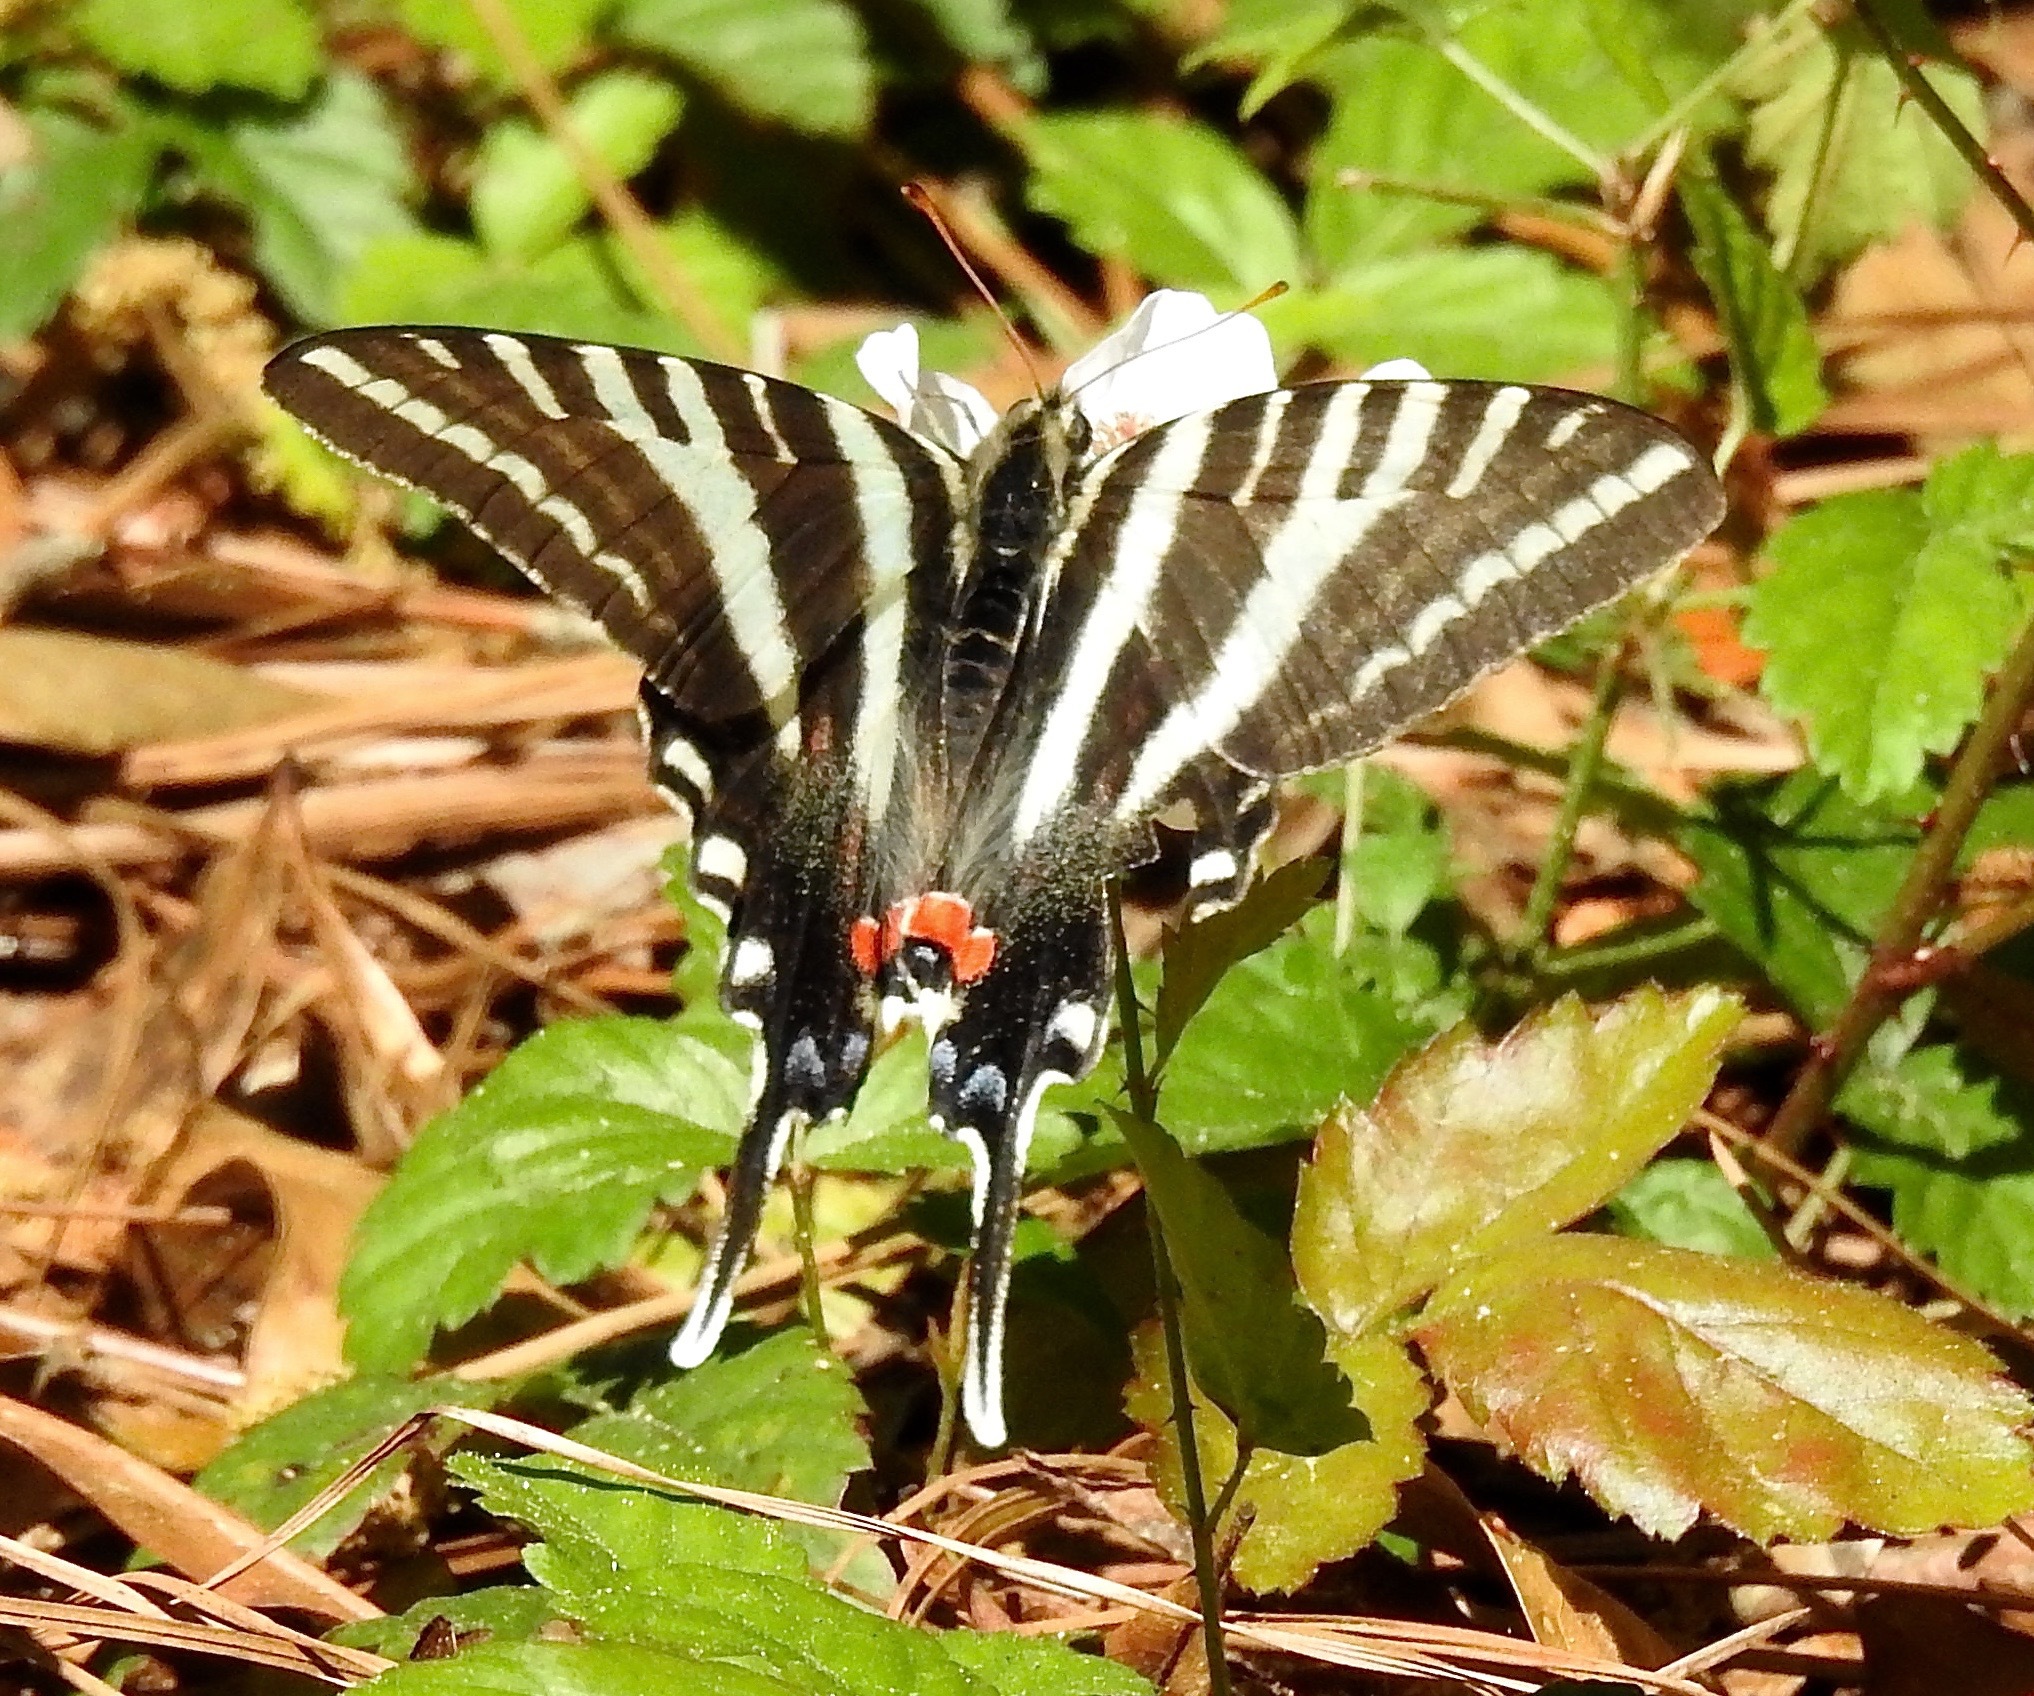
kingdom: Animalia
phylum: Arthropoda
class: Insecta
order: Lepidoptera
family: Papilionidae
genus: Protographium
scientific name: Protographium marcellus
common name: Zebra swallowtail
